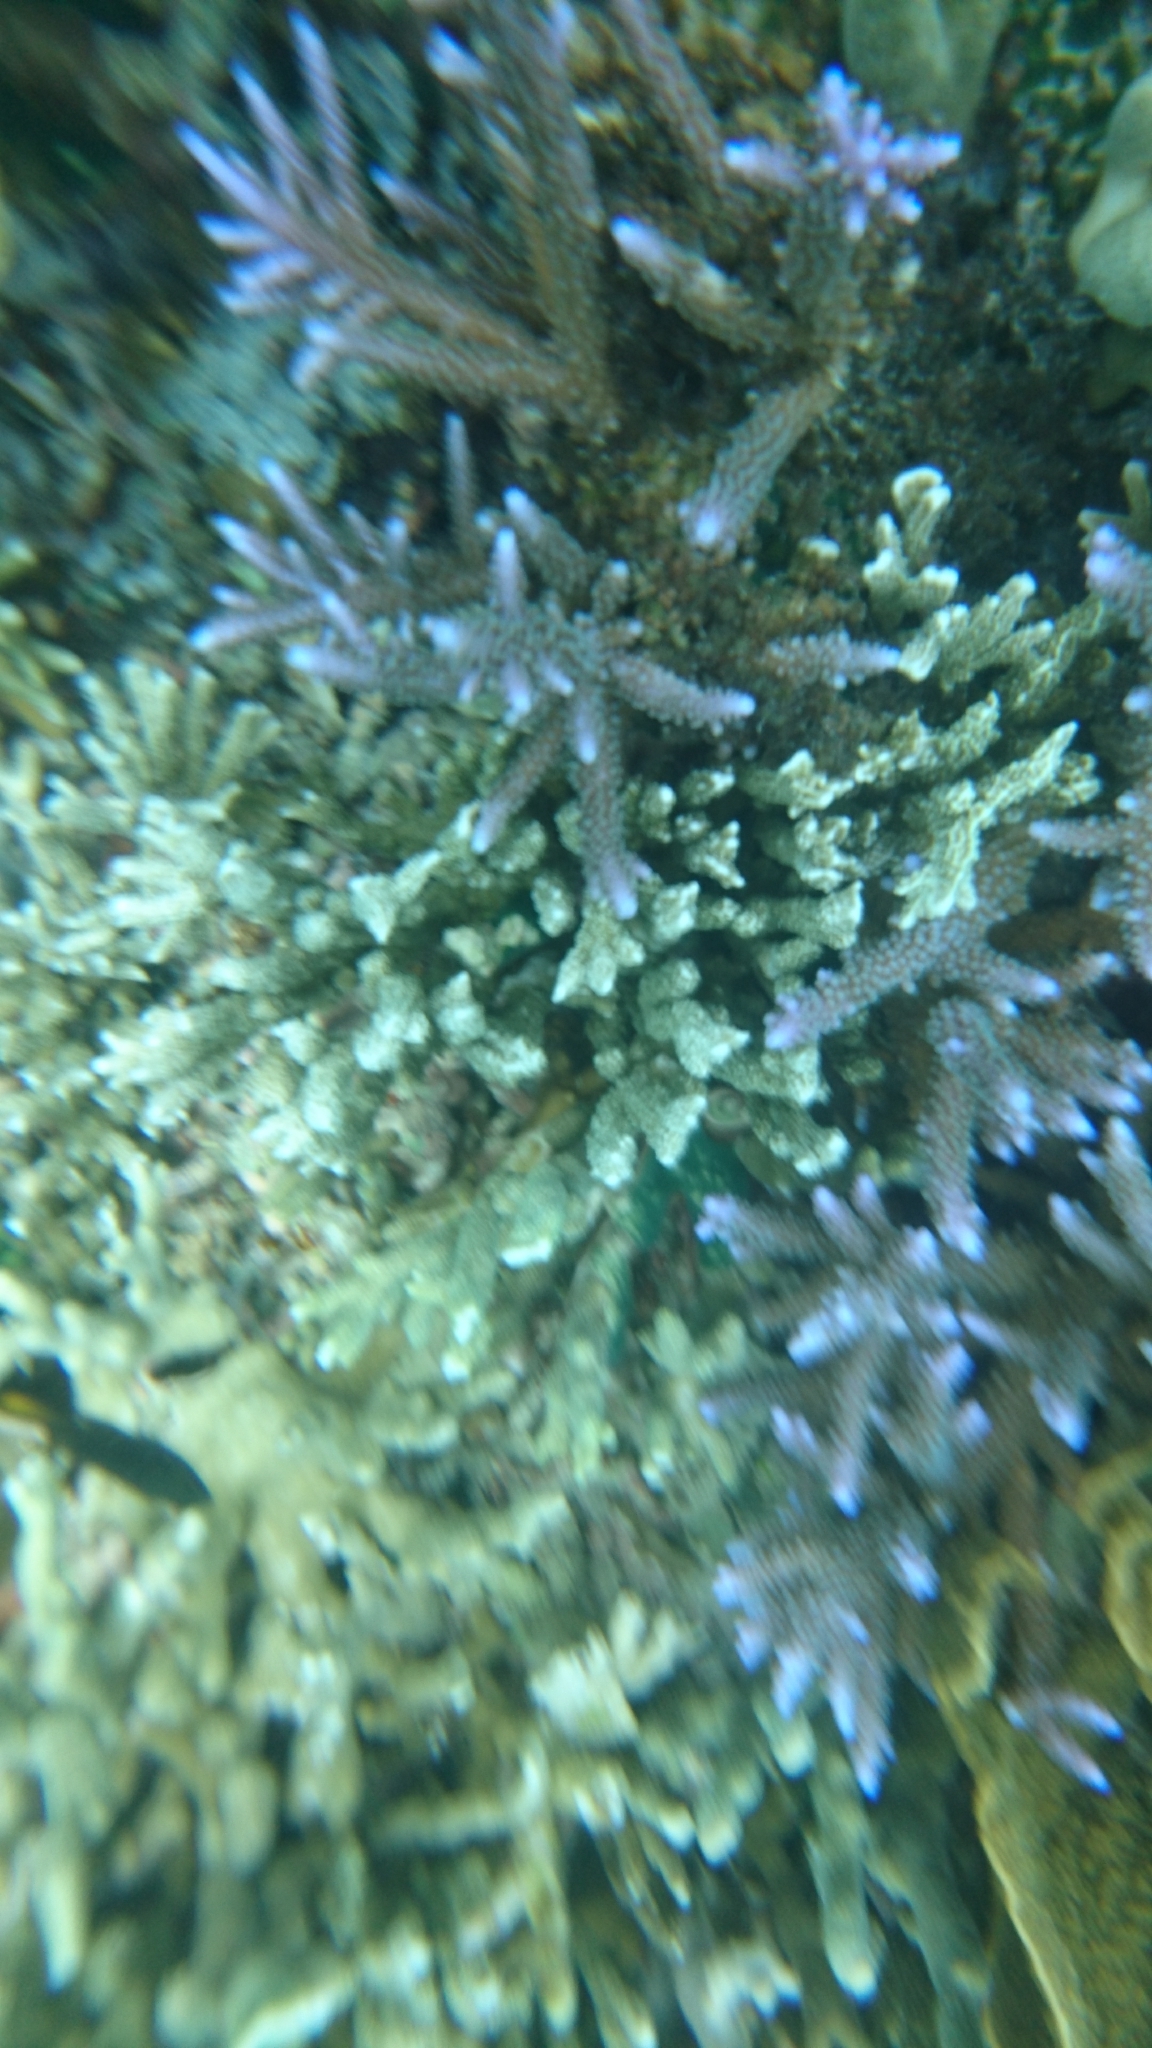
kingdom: Animalia
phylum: Cnidaria
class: Anthozoa
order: Scleractinia
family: Acroporidae
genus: Acropora
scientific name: Acropora
